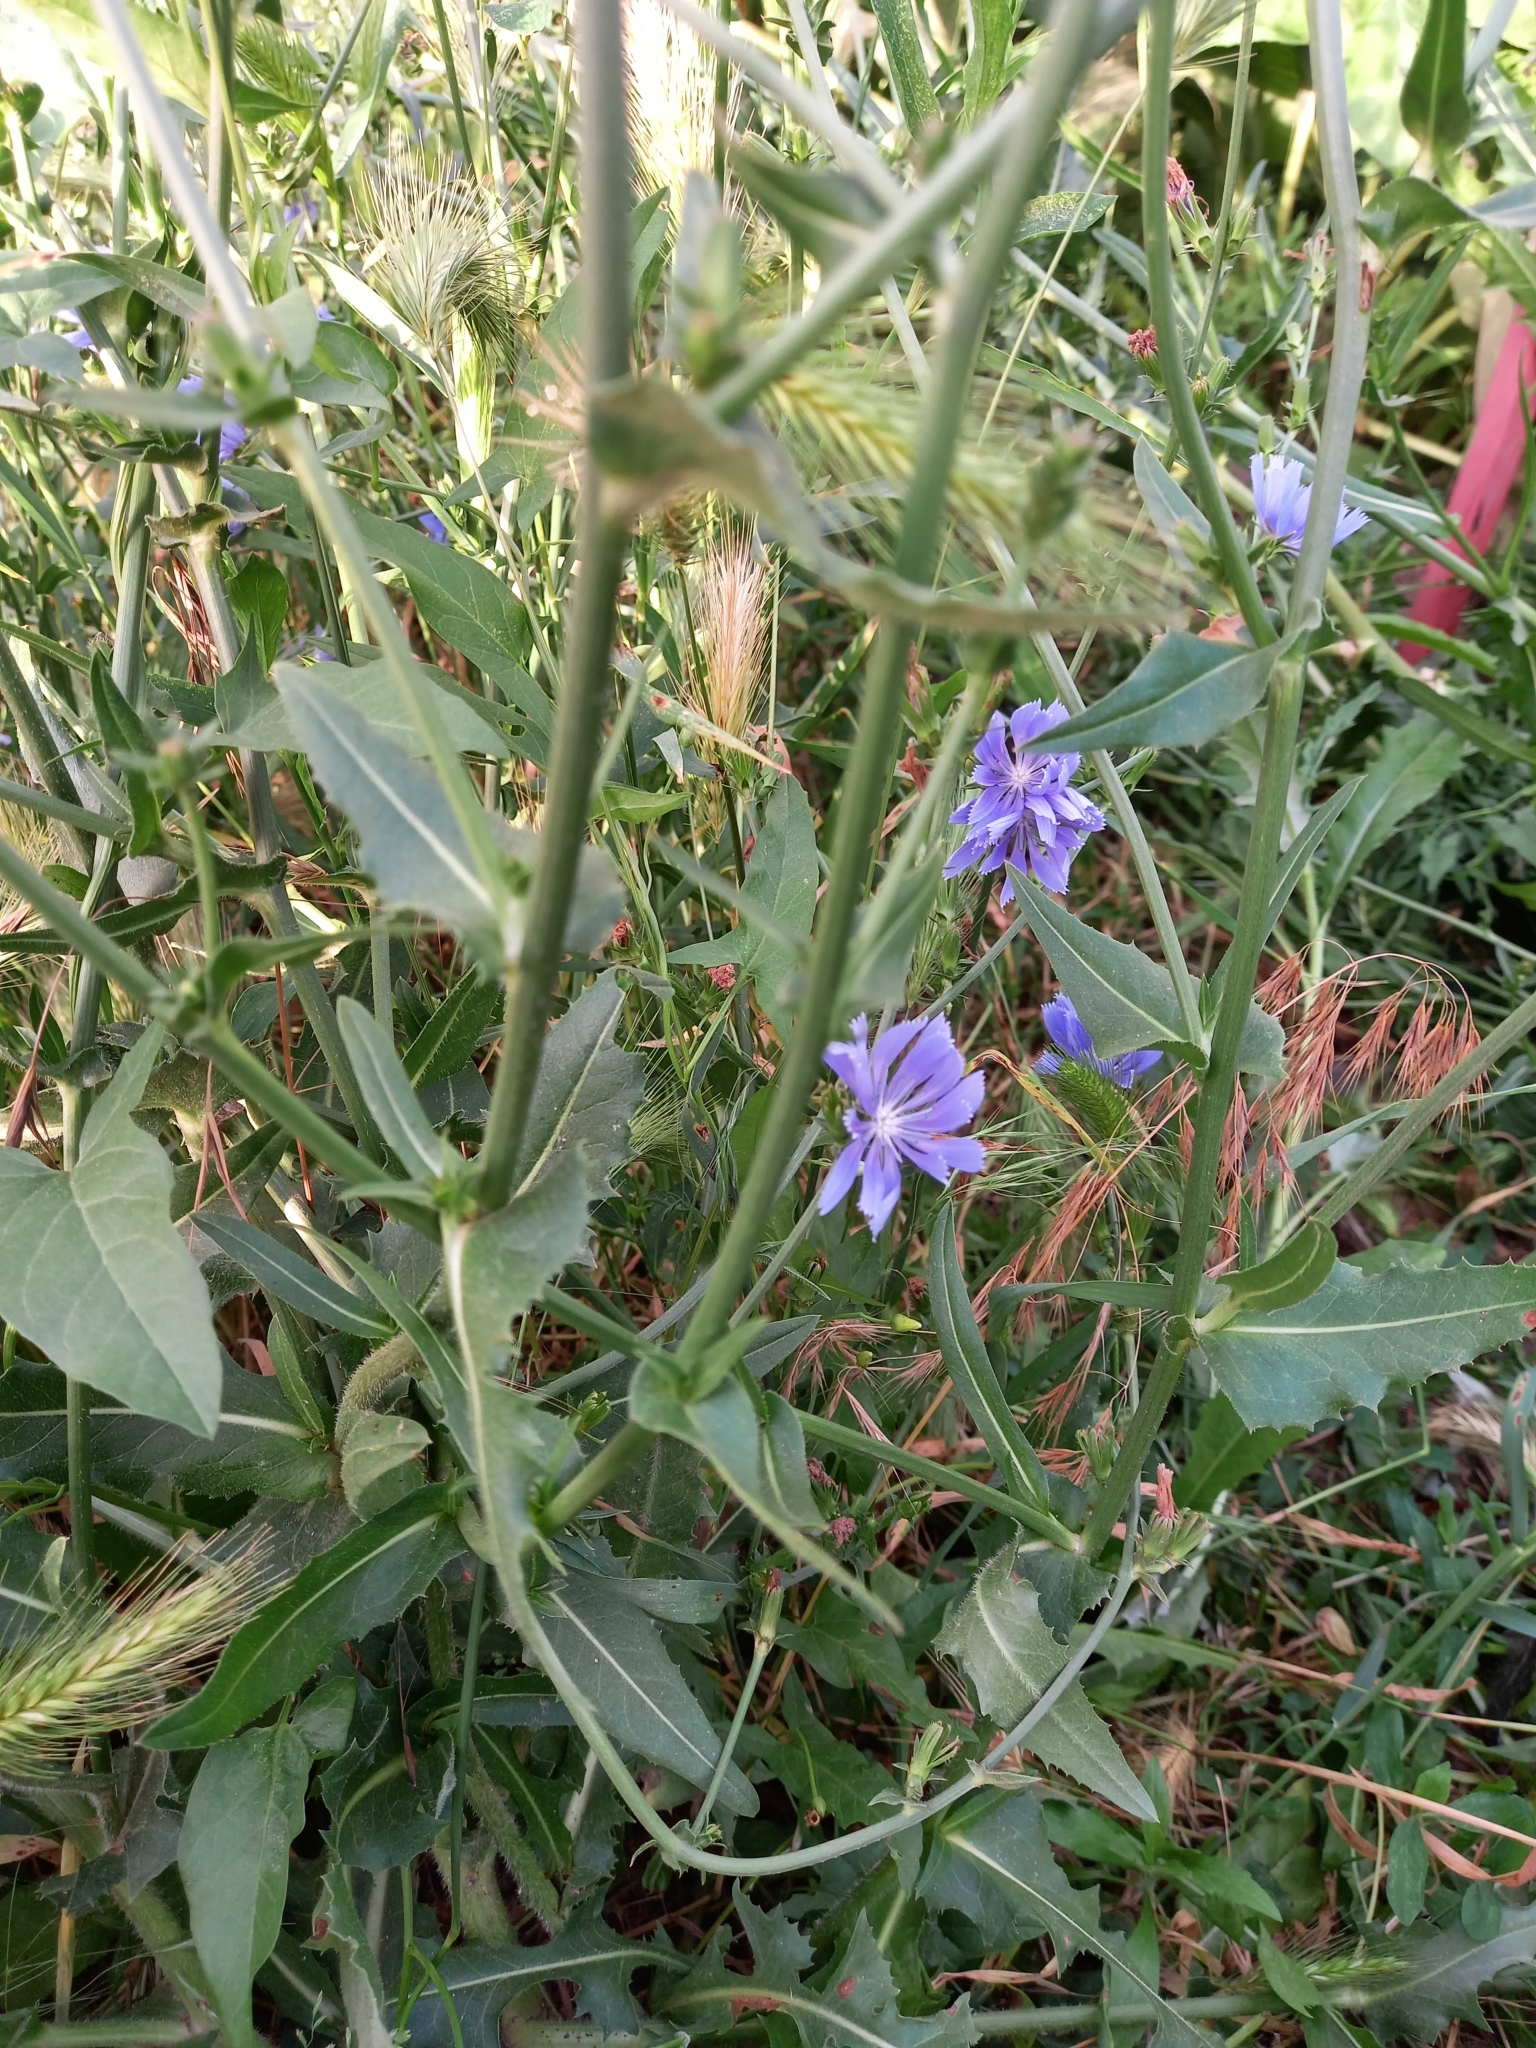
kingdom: Plantae
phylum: Tracheophyta
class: Magnoliopsida
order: Asterales
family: Asteraceae
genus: Cichorium
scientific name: Cichorium intybus
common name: Chicory
